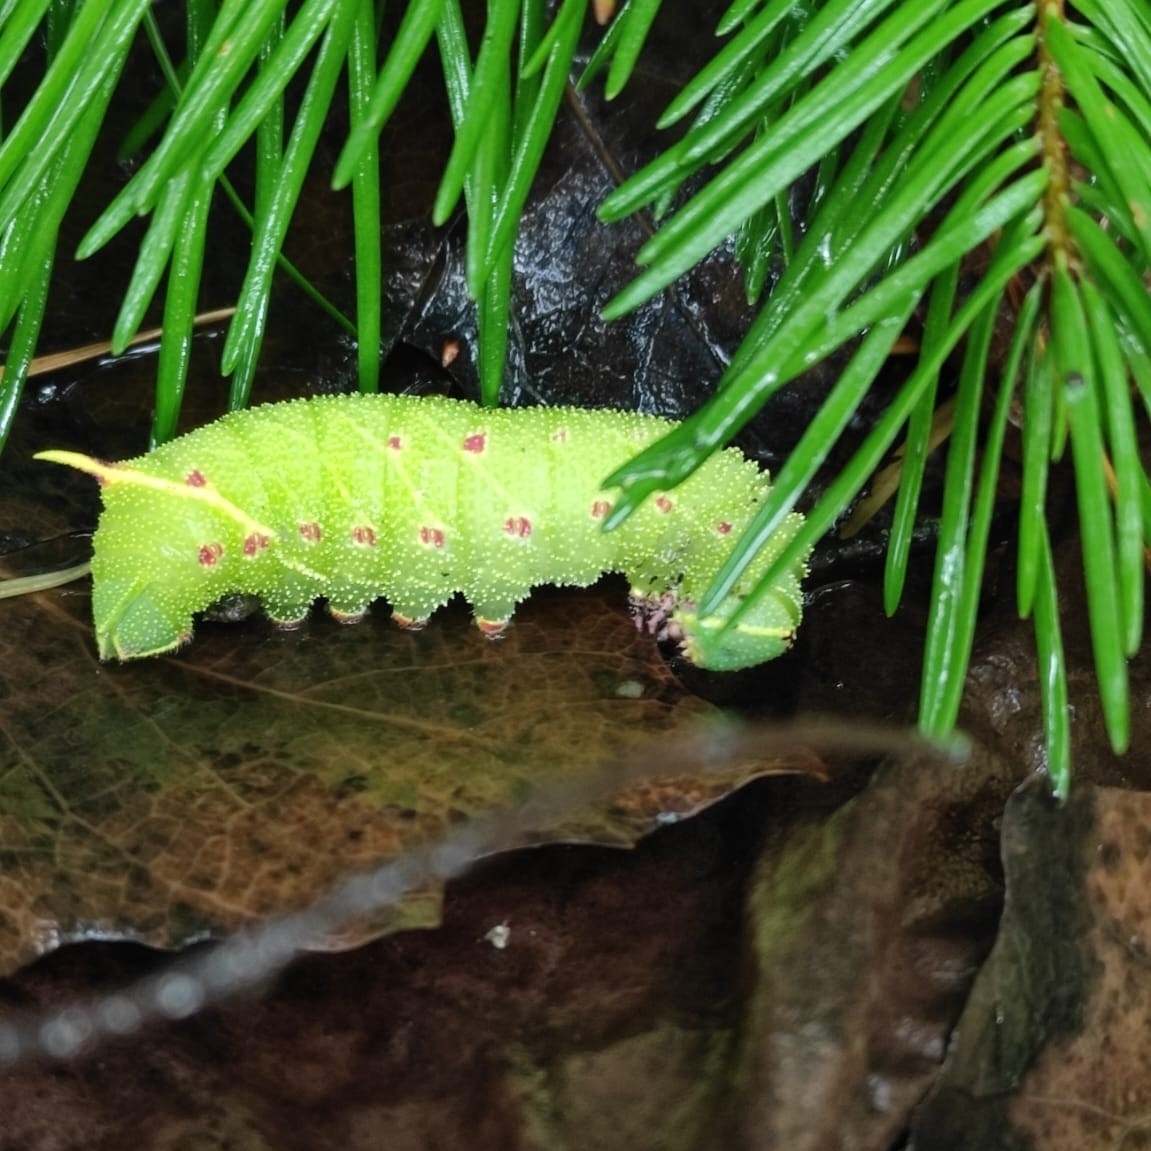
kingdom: Animalia
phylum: Arthropoda
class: Insecta
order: Lepidoptera
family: Sphingidae
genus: Laothoe
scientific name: Laothoe populi
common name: Poplar hawk-moth
